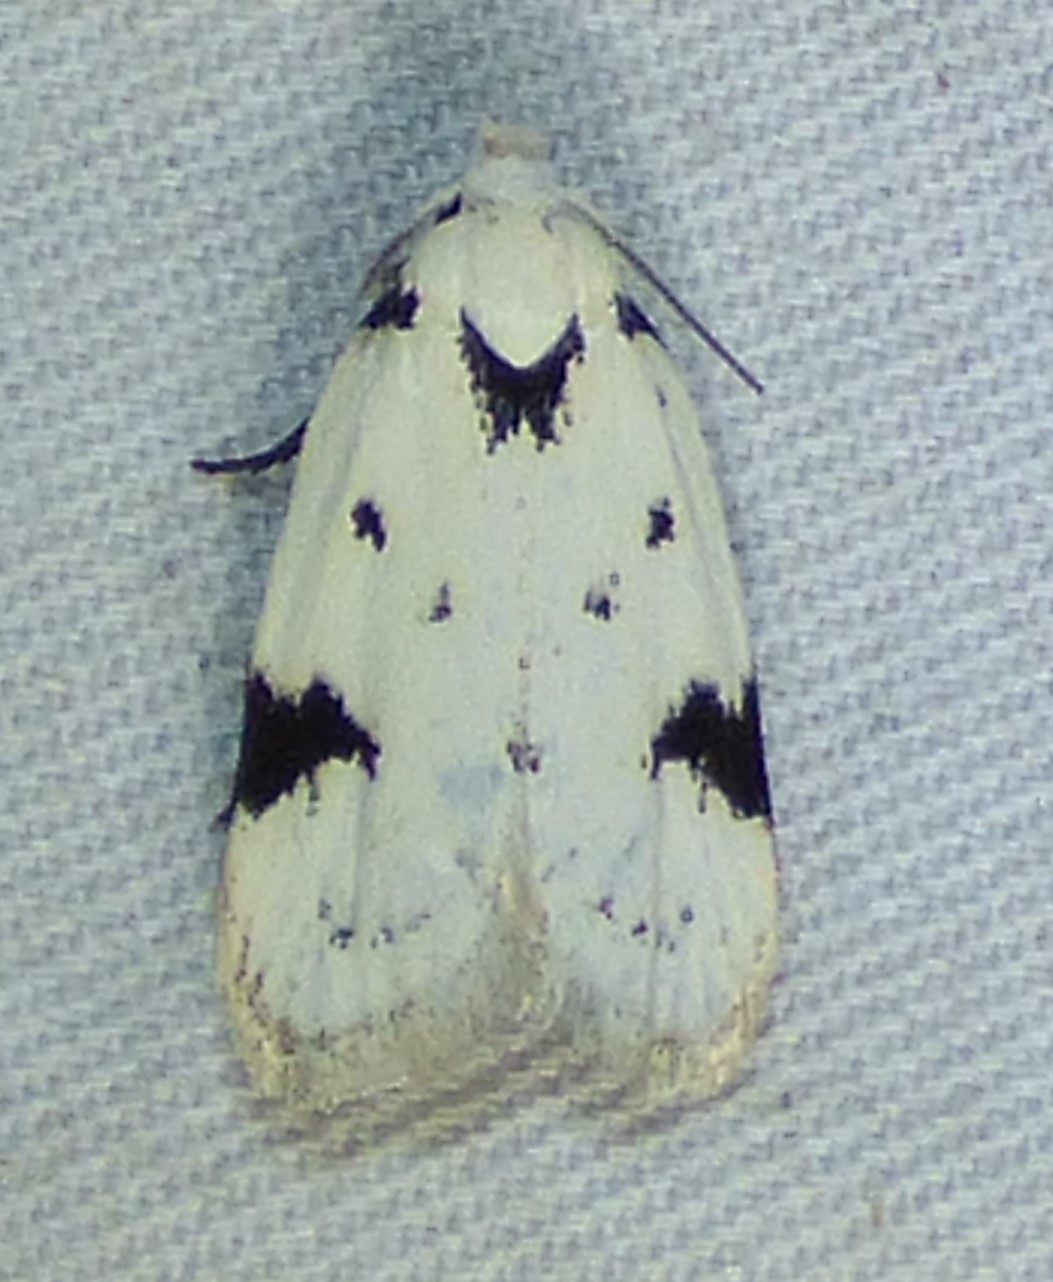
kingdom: Animalia
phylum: Arthropoda
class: Insecta
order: Lepidoptera
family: Oecophoridae
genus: Inga
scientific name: Inga sparsiciliella
